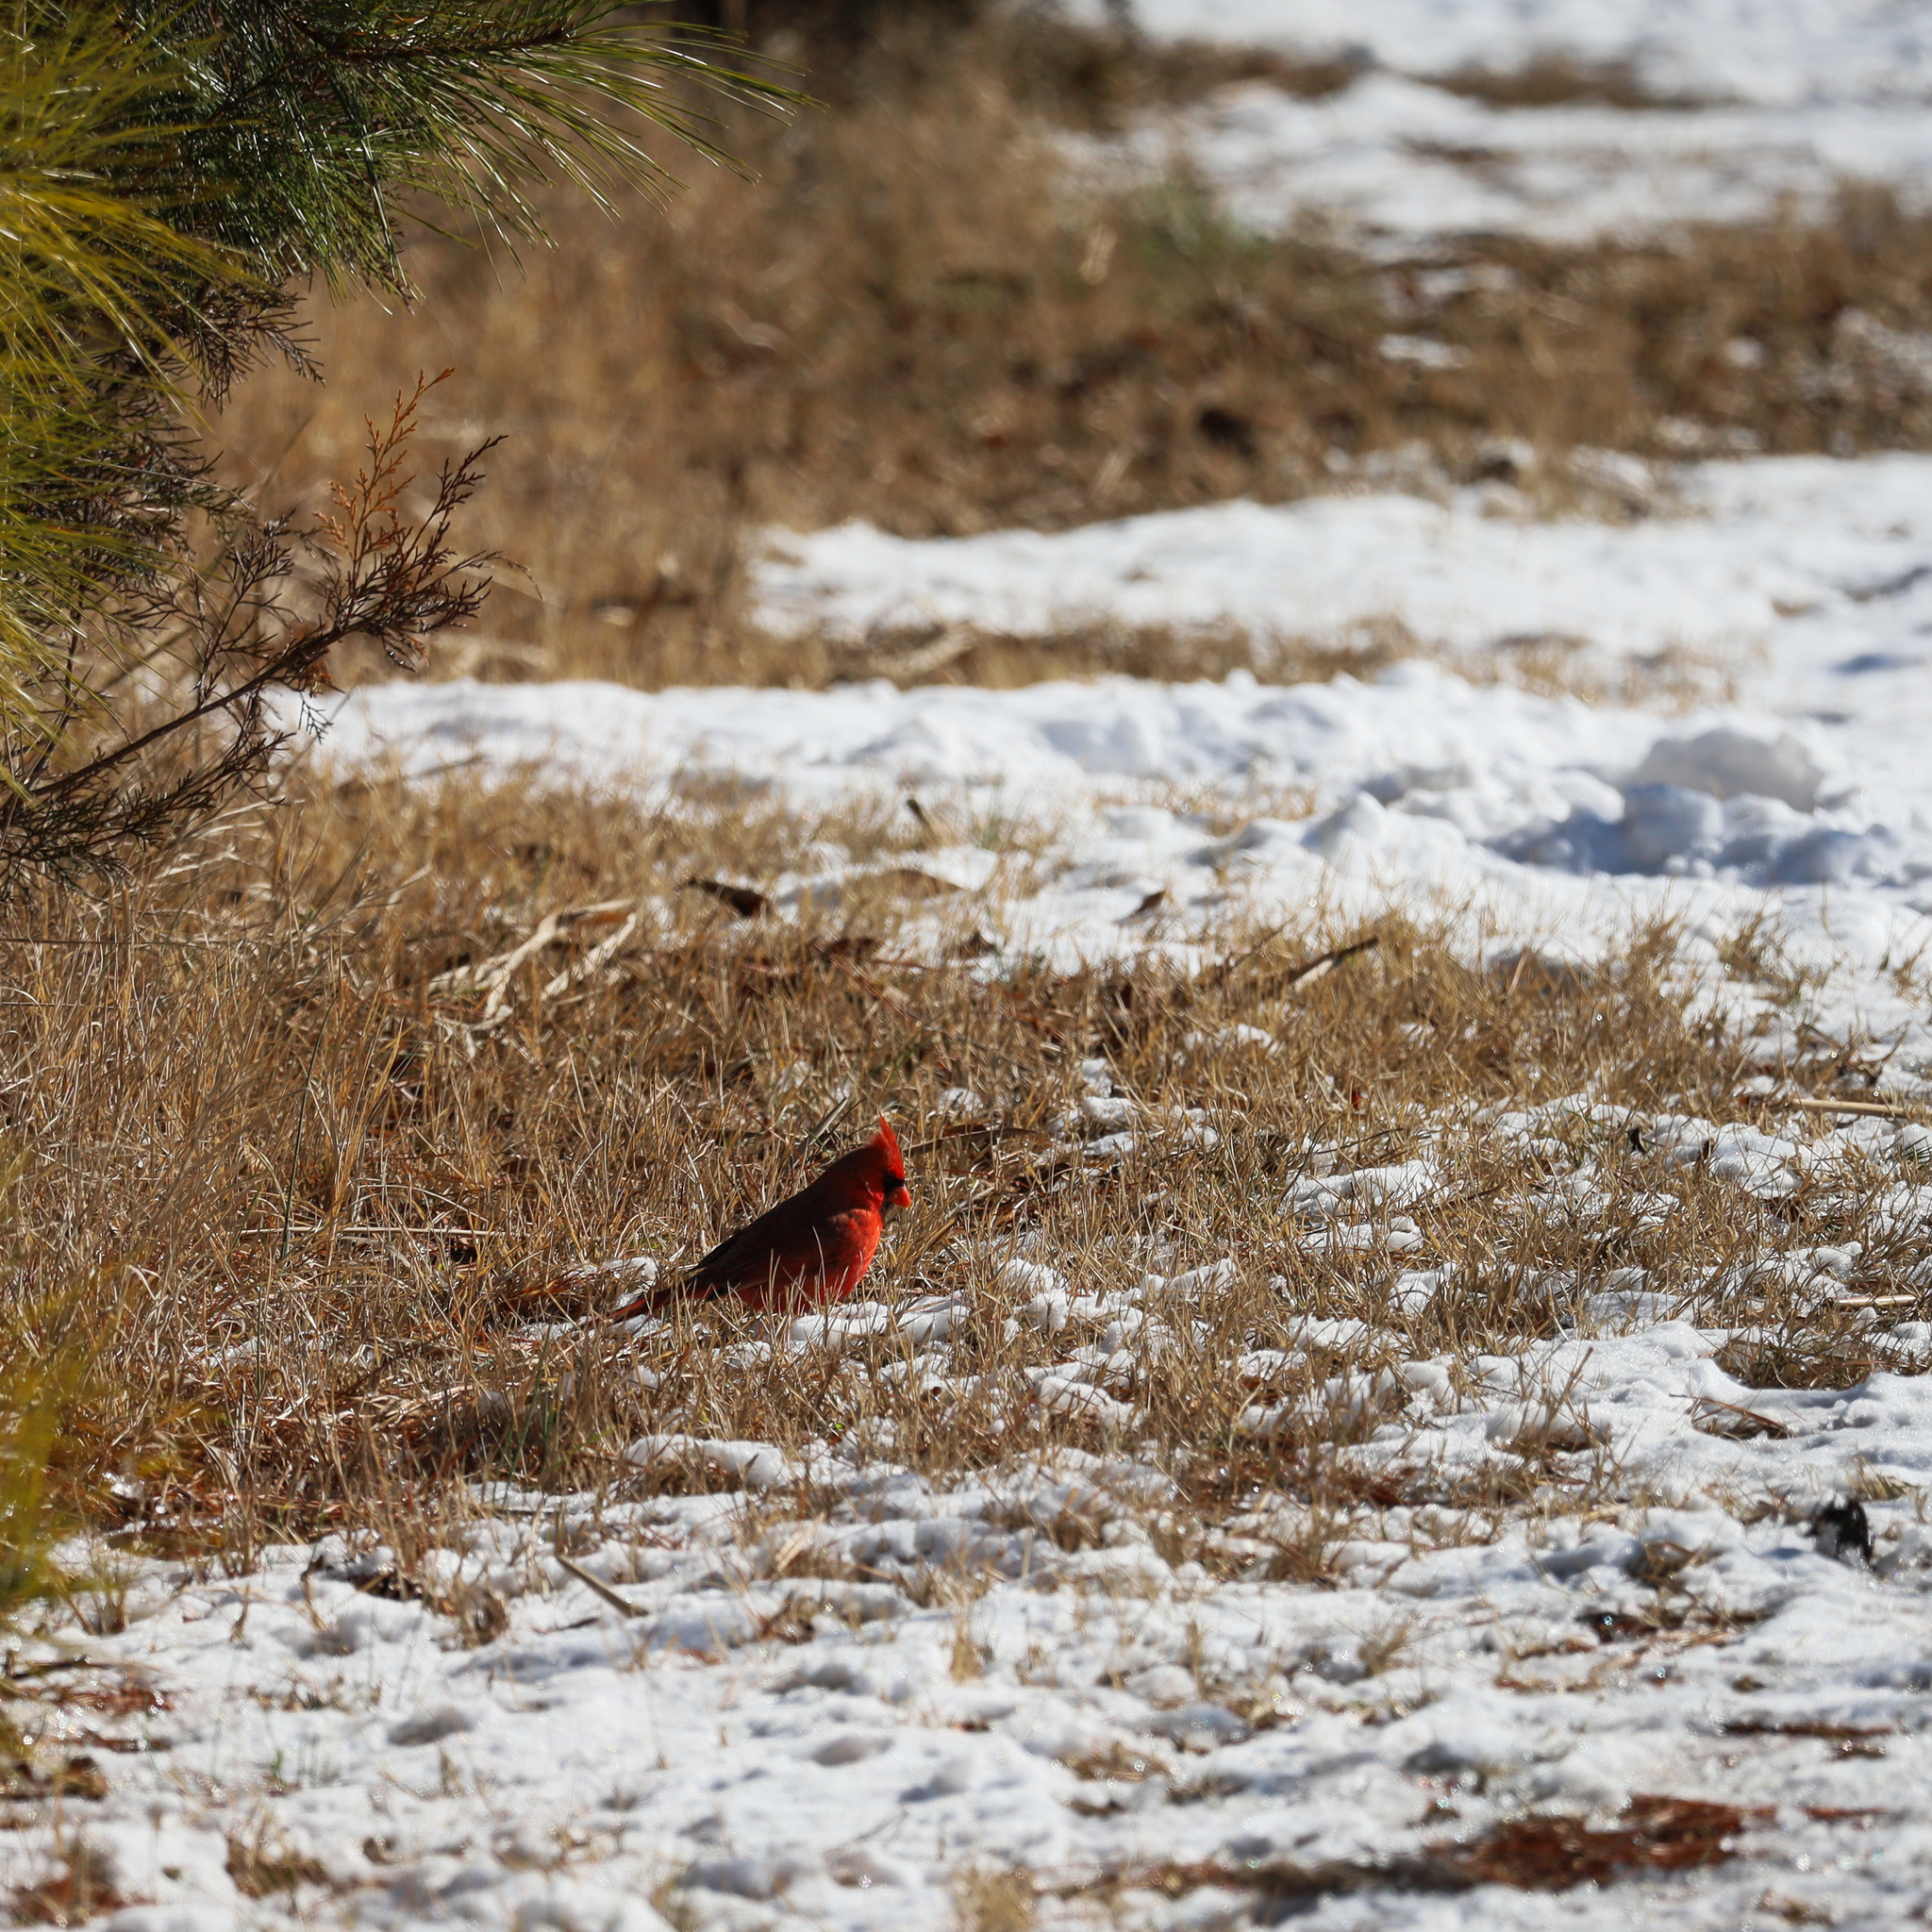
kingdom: Animalia
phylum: Chordata
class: Aves
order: Passeriformes
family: Cardinalidae
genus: Cardinalis
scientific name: Cardinalis cardinalis
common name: Northern cardinal
